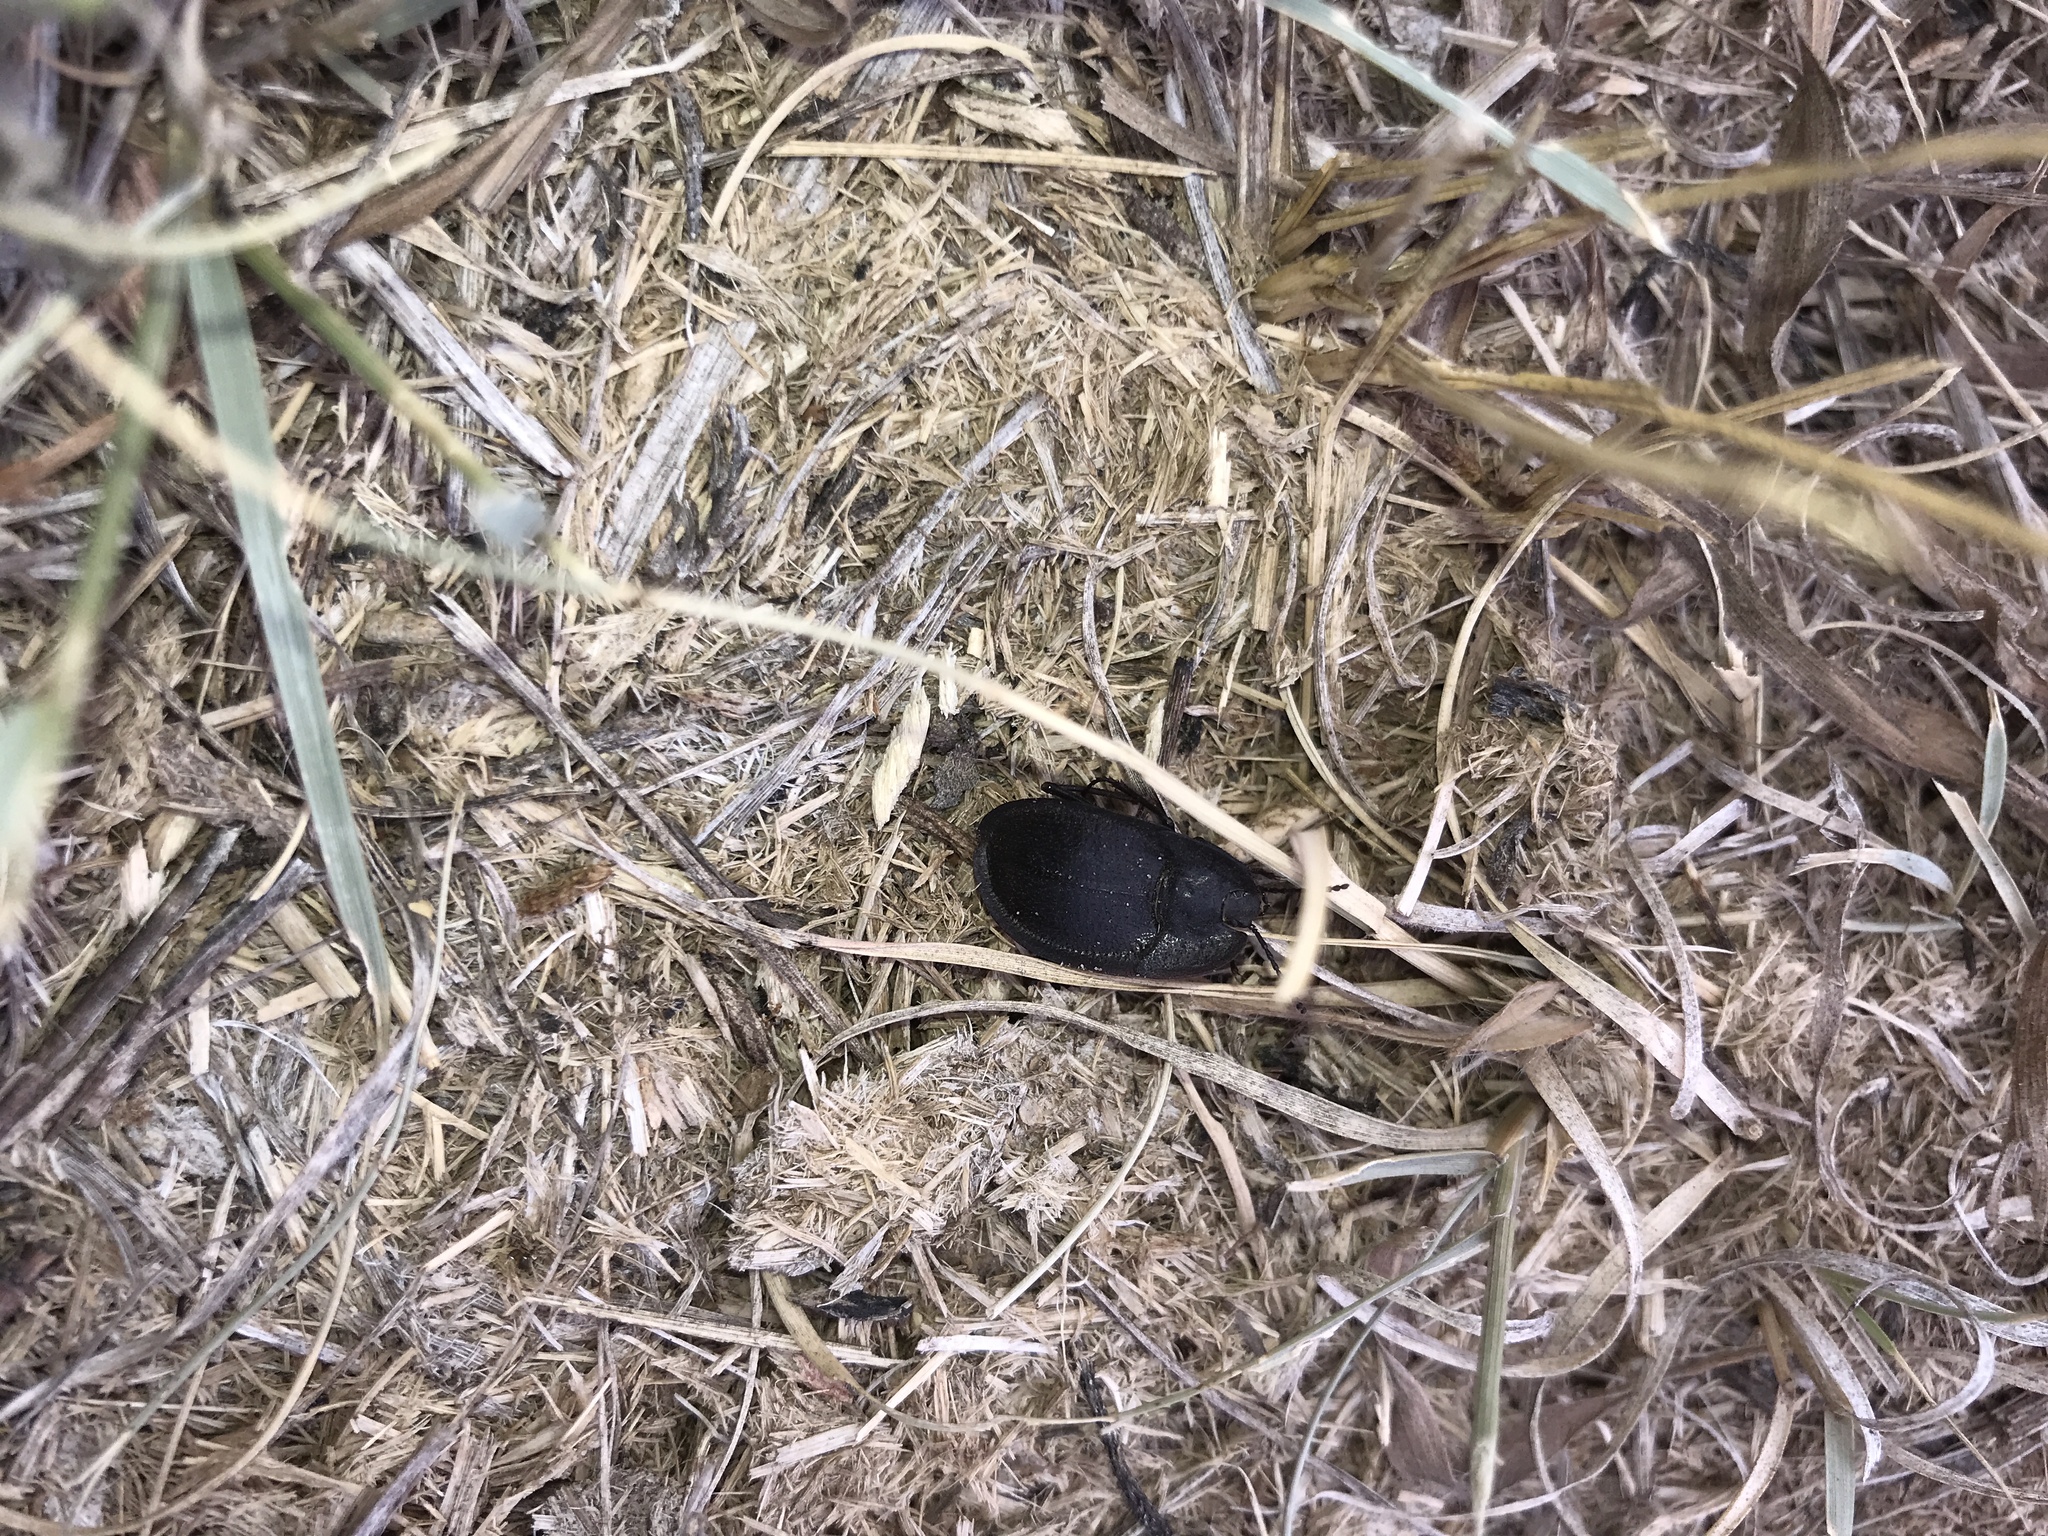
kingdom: Animalia
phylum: Arthropoda
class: Insecta
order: Coleoptera
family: Tenebrionidae
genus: Embaphion
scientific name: Embaphion muricatum
